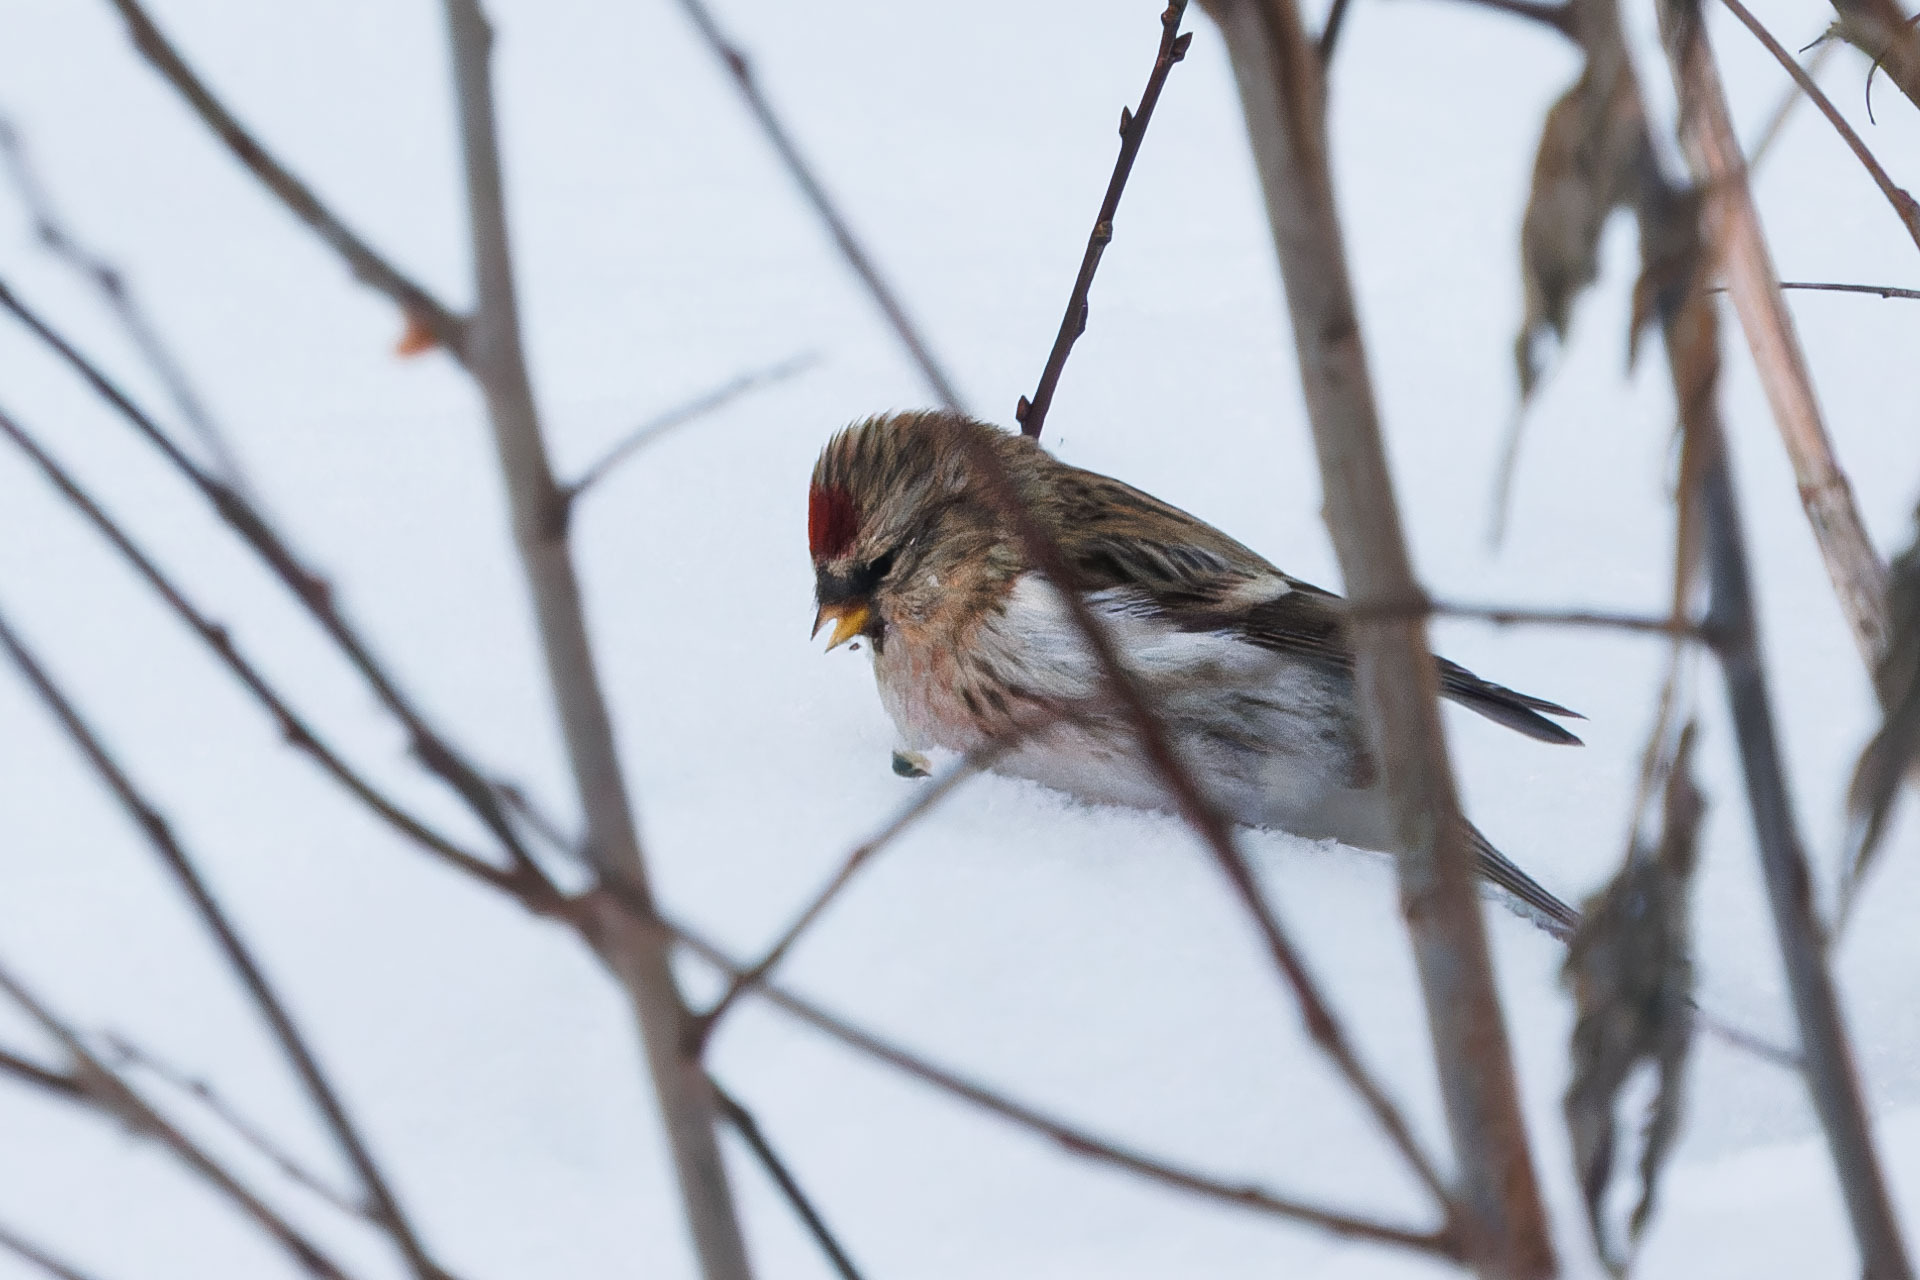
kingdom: Animalia
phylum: Chordata
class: Aves
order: Passeriformes
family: Fringillidae
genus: Acanthis
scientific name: Acanthis flammea
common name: Common redpoll
